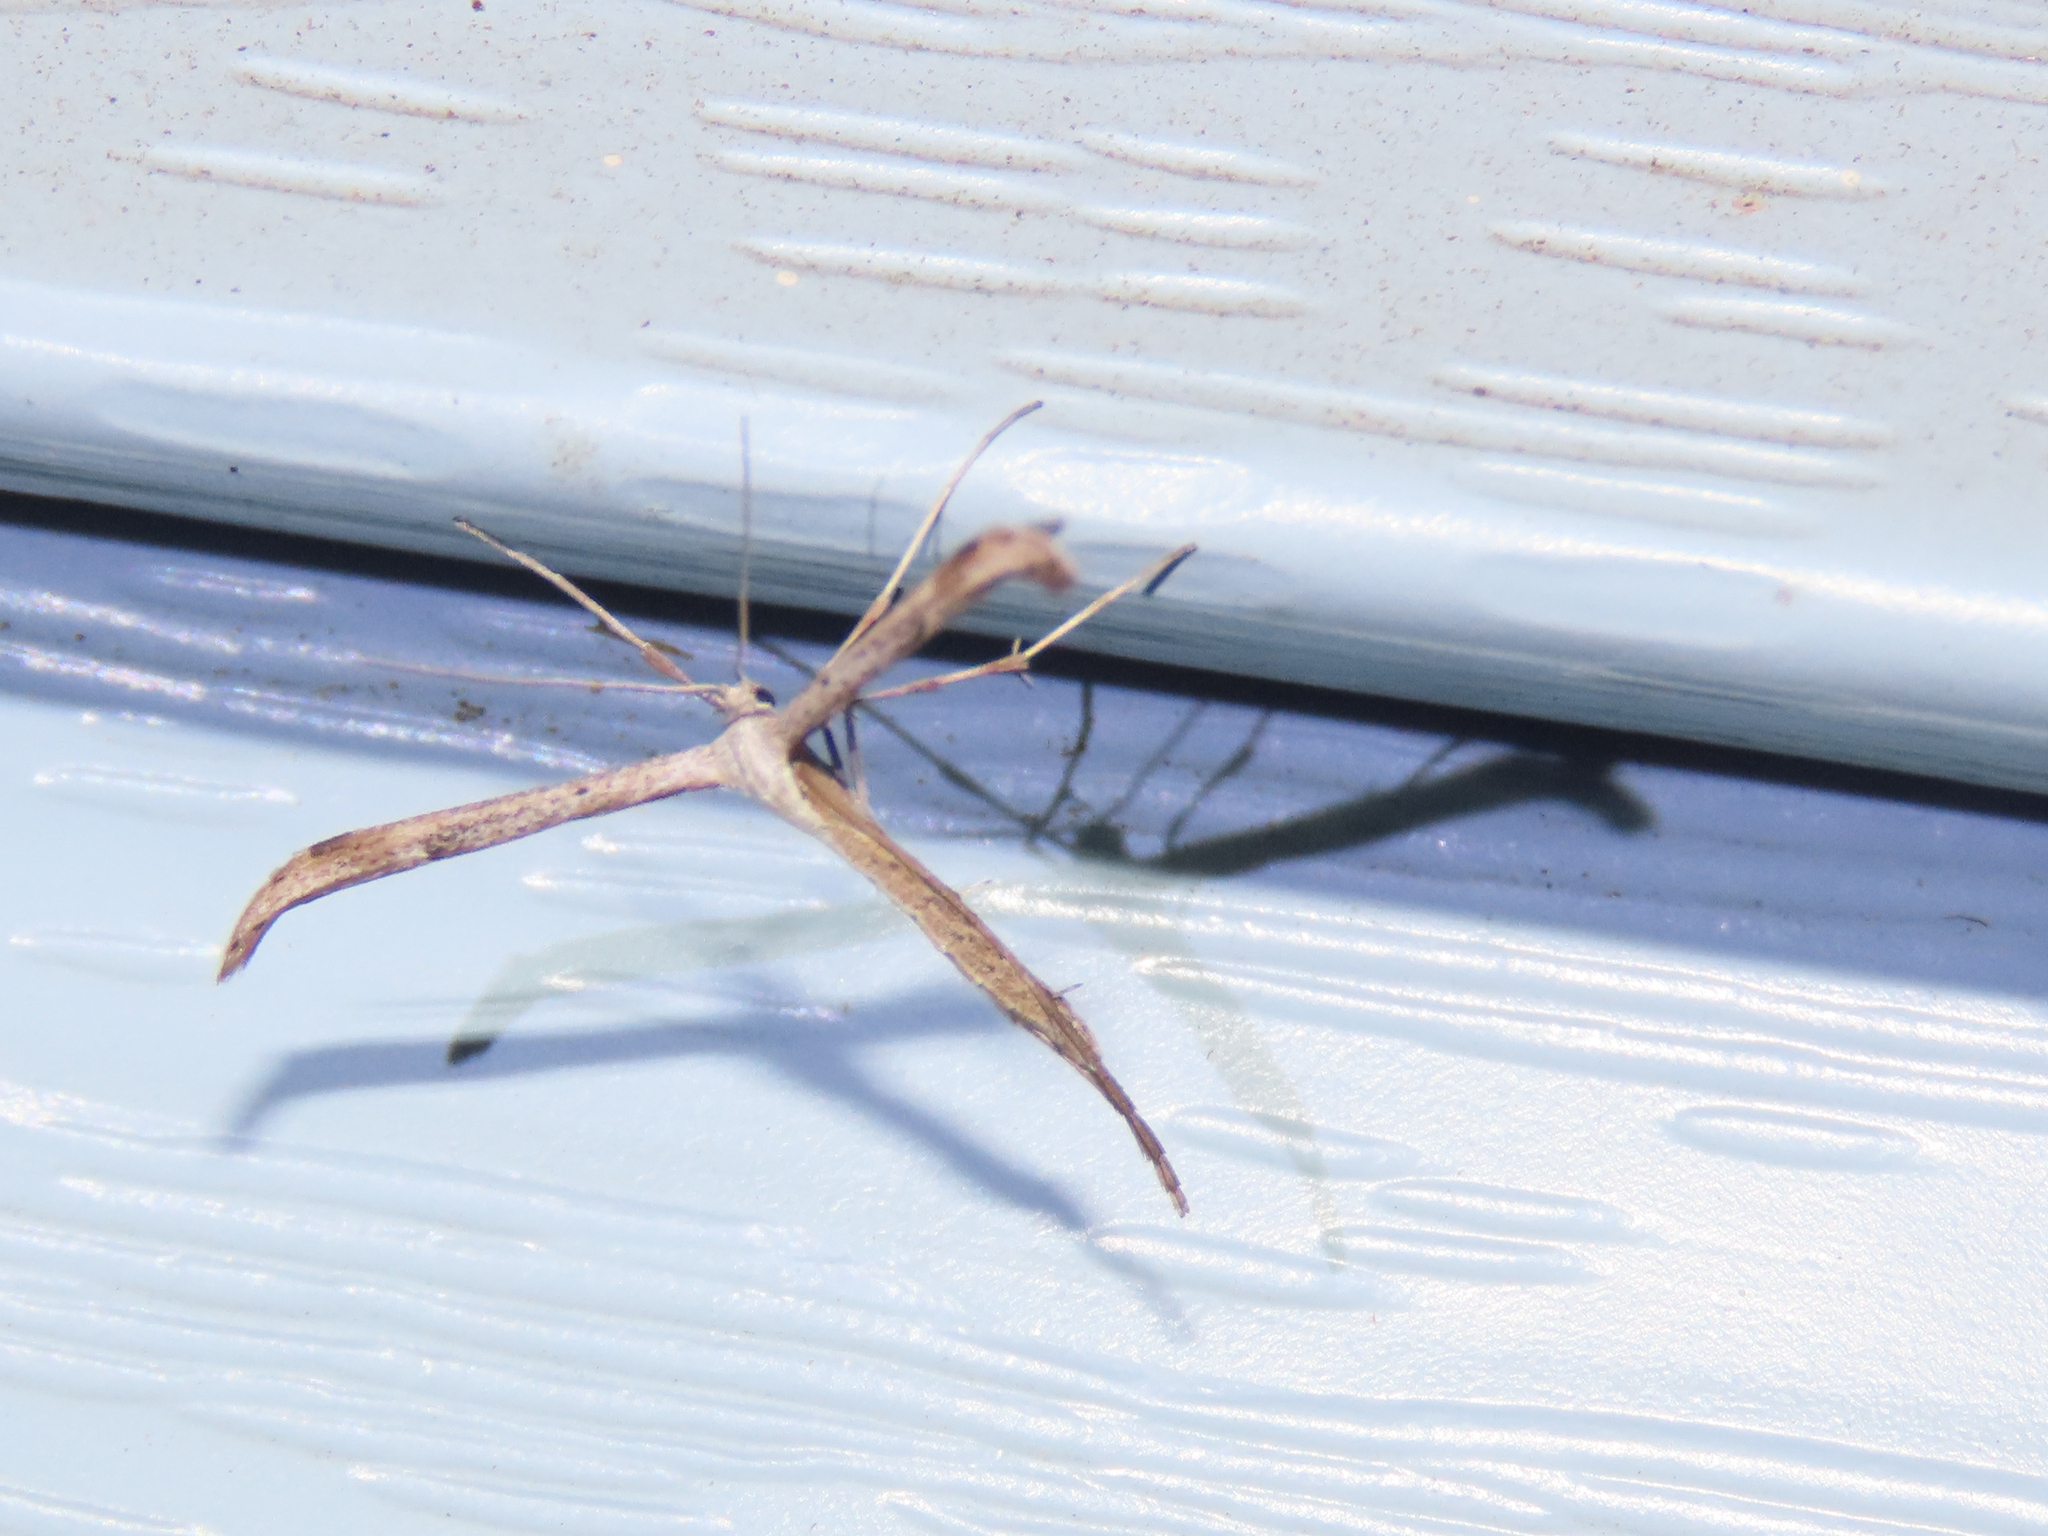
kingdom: Animalia
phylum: Arthropoda
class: Insecta
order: Lepidoptera
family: Pterophoridae
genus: Emmelina
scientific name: Emmelina monodactyla
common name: Common plume
